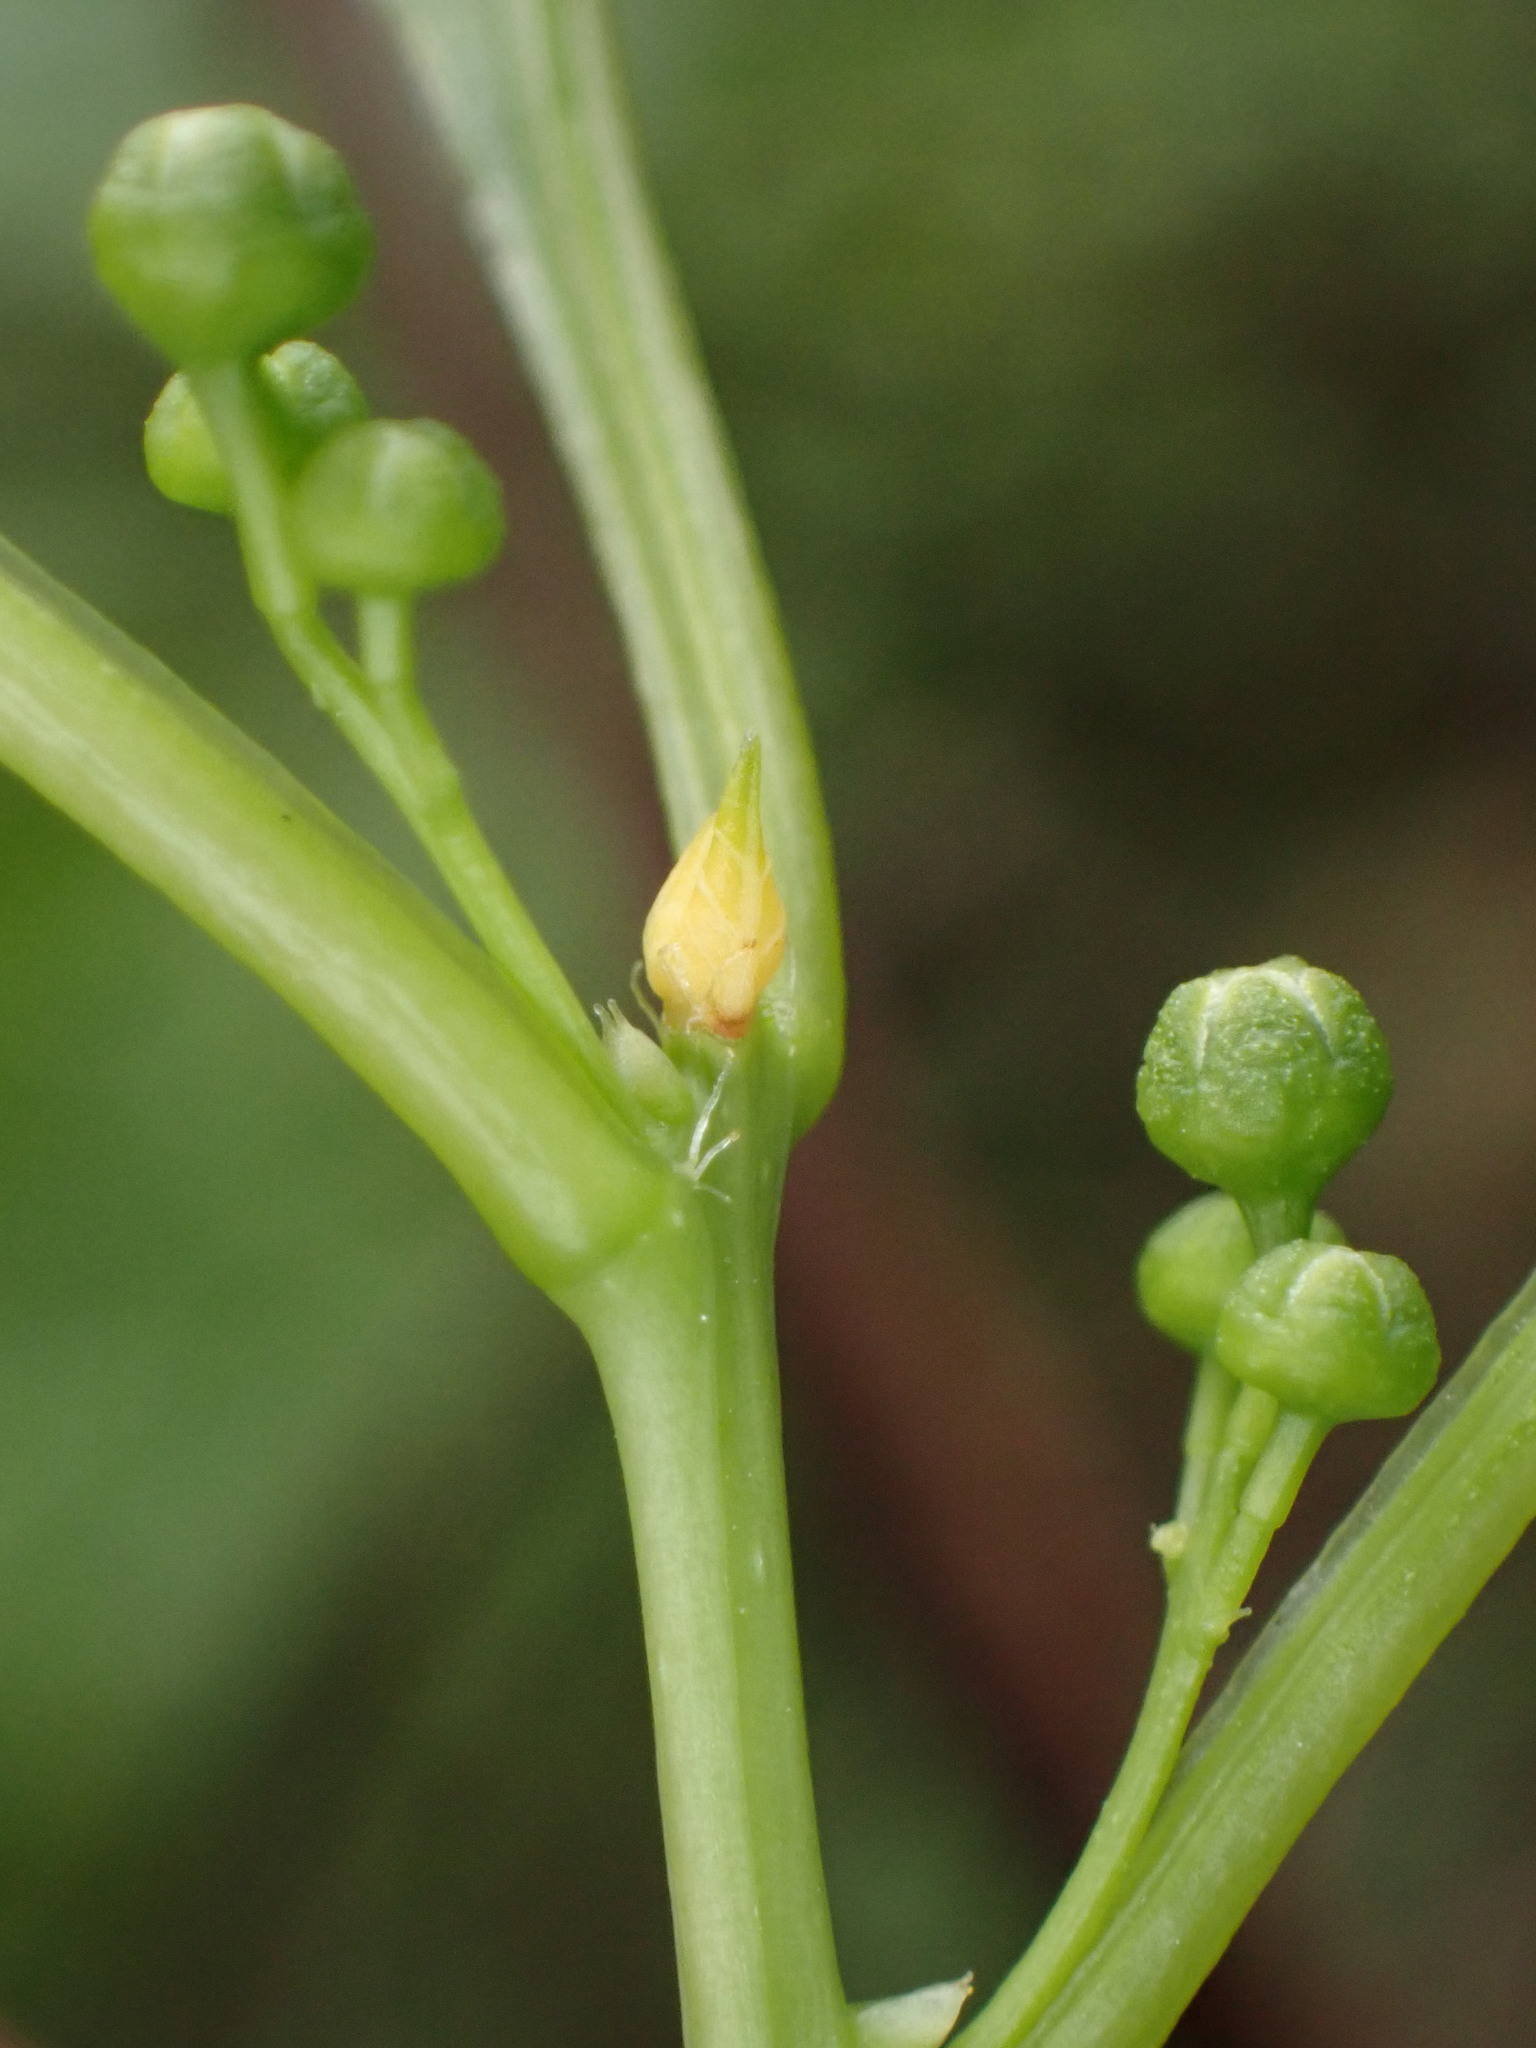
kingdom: Plantae
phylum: Tracheophyta
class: Magnoliopsida
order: Celastrales
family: Celastraceae
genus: Celastrus
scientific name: Celastrus orbiculatus
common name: Oriental bittersweet
